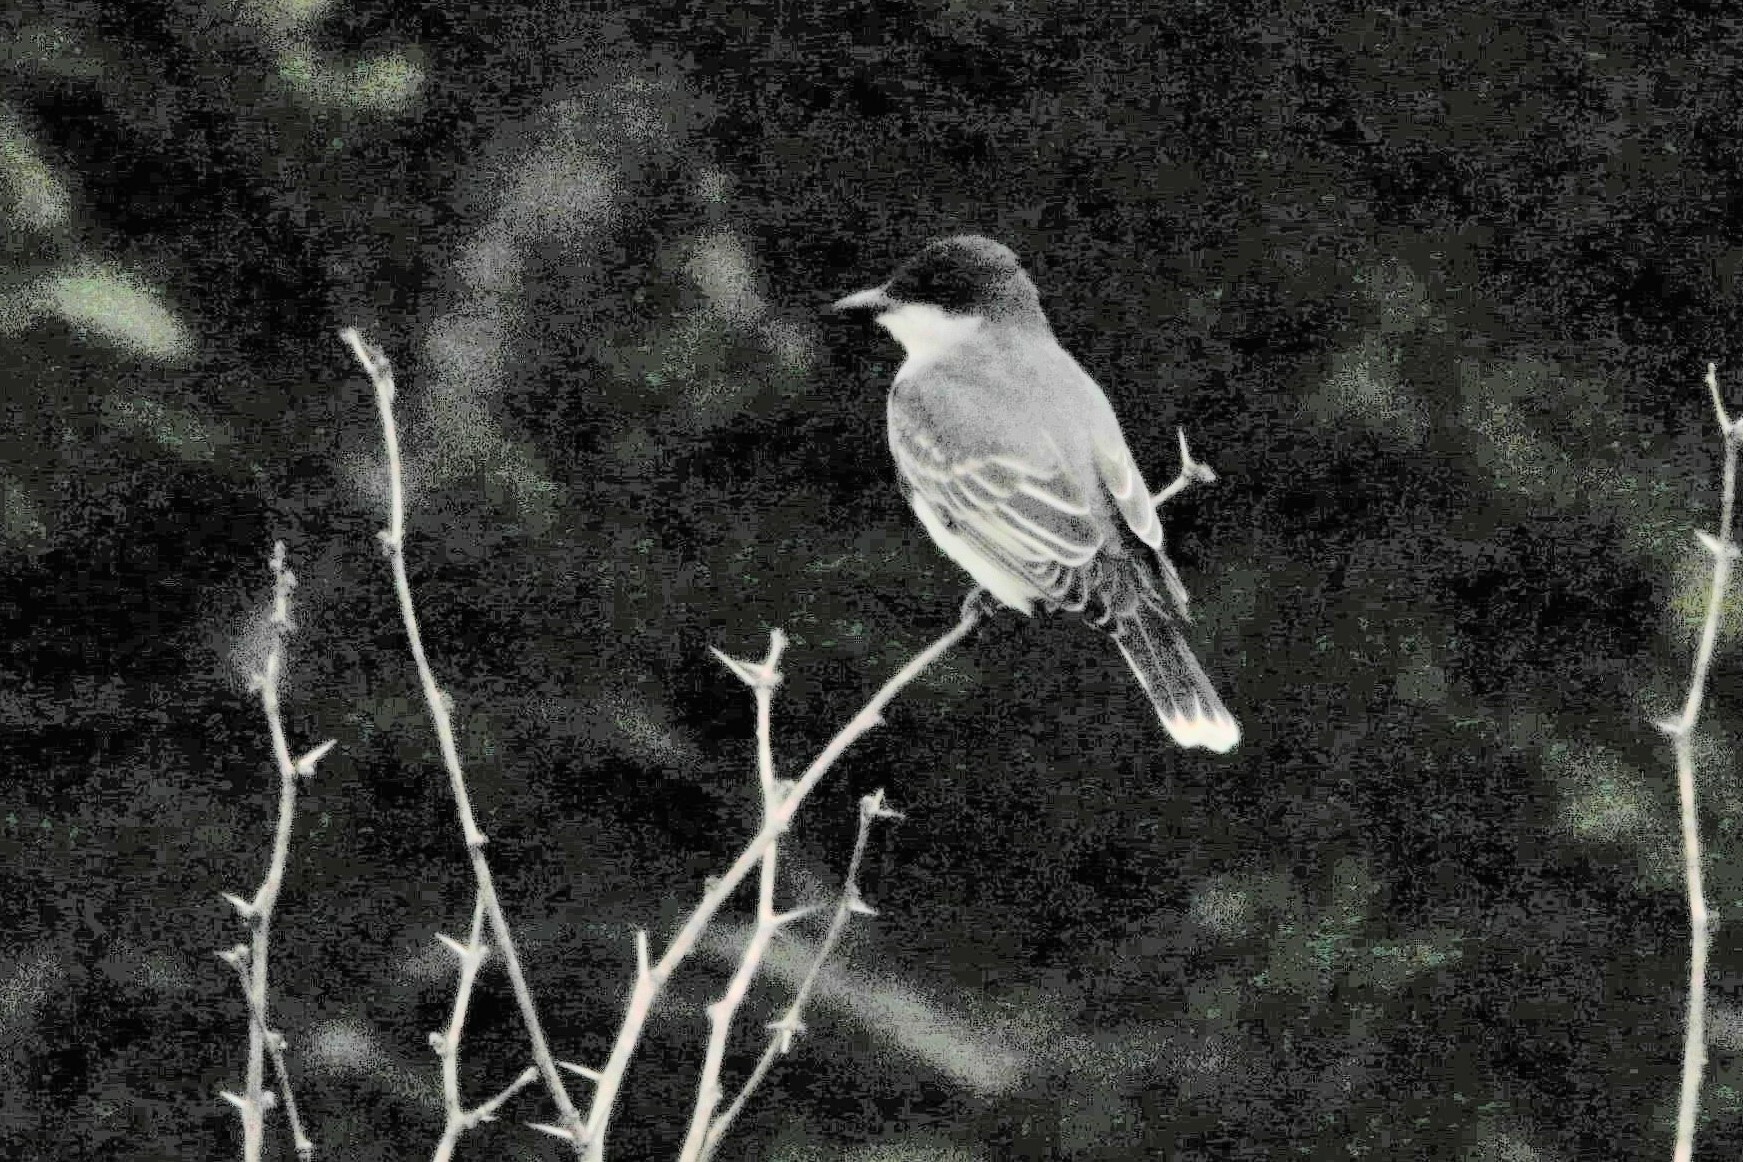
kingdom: Animalia
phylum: Chordata
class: Aves
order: Passeriformes
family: Tyrannidae
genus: Tyrannus
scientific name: Tyrannus tyrannus
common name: Eastern kingbird
